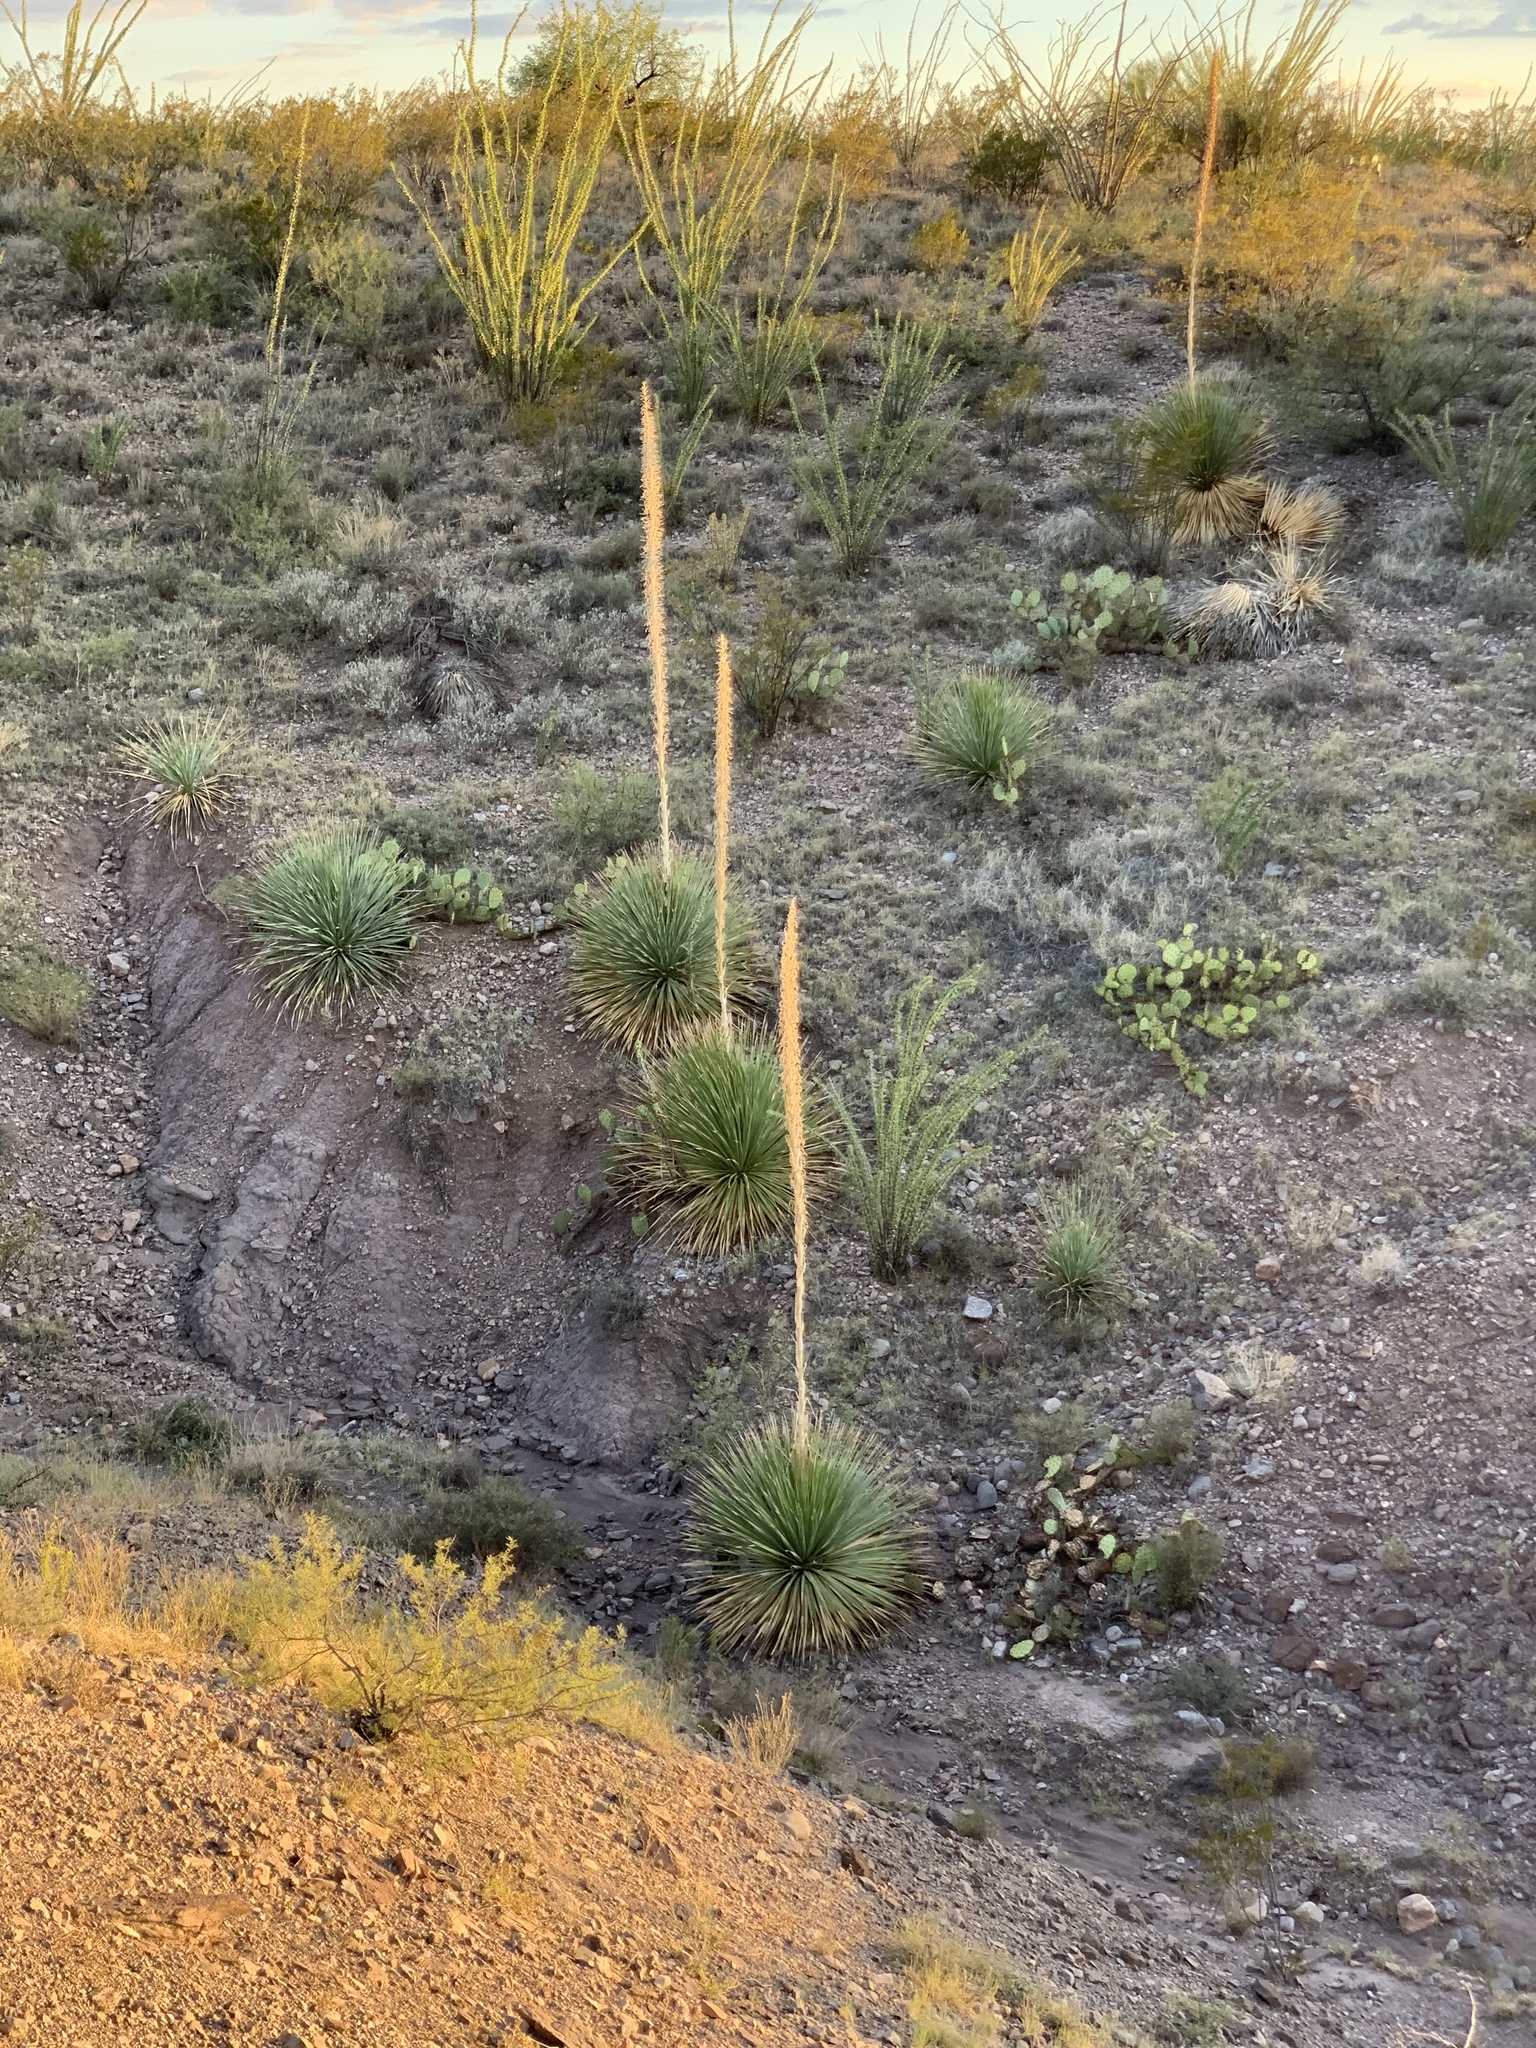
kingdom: Plantae
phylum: Tracheophyta
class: Liliopsida
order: Asparagales
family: Asparagaceae
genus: Dasylirion
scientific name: Dasylirion wheeleri
